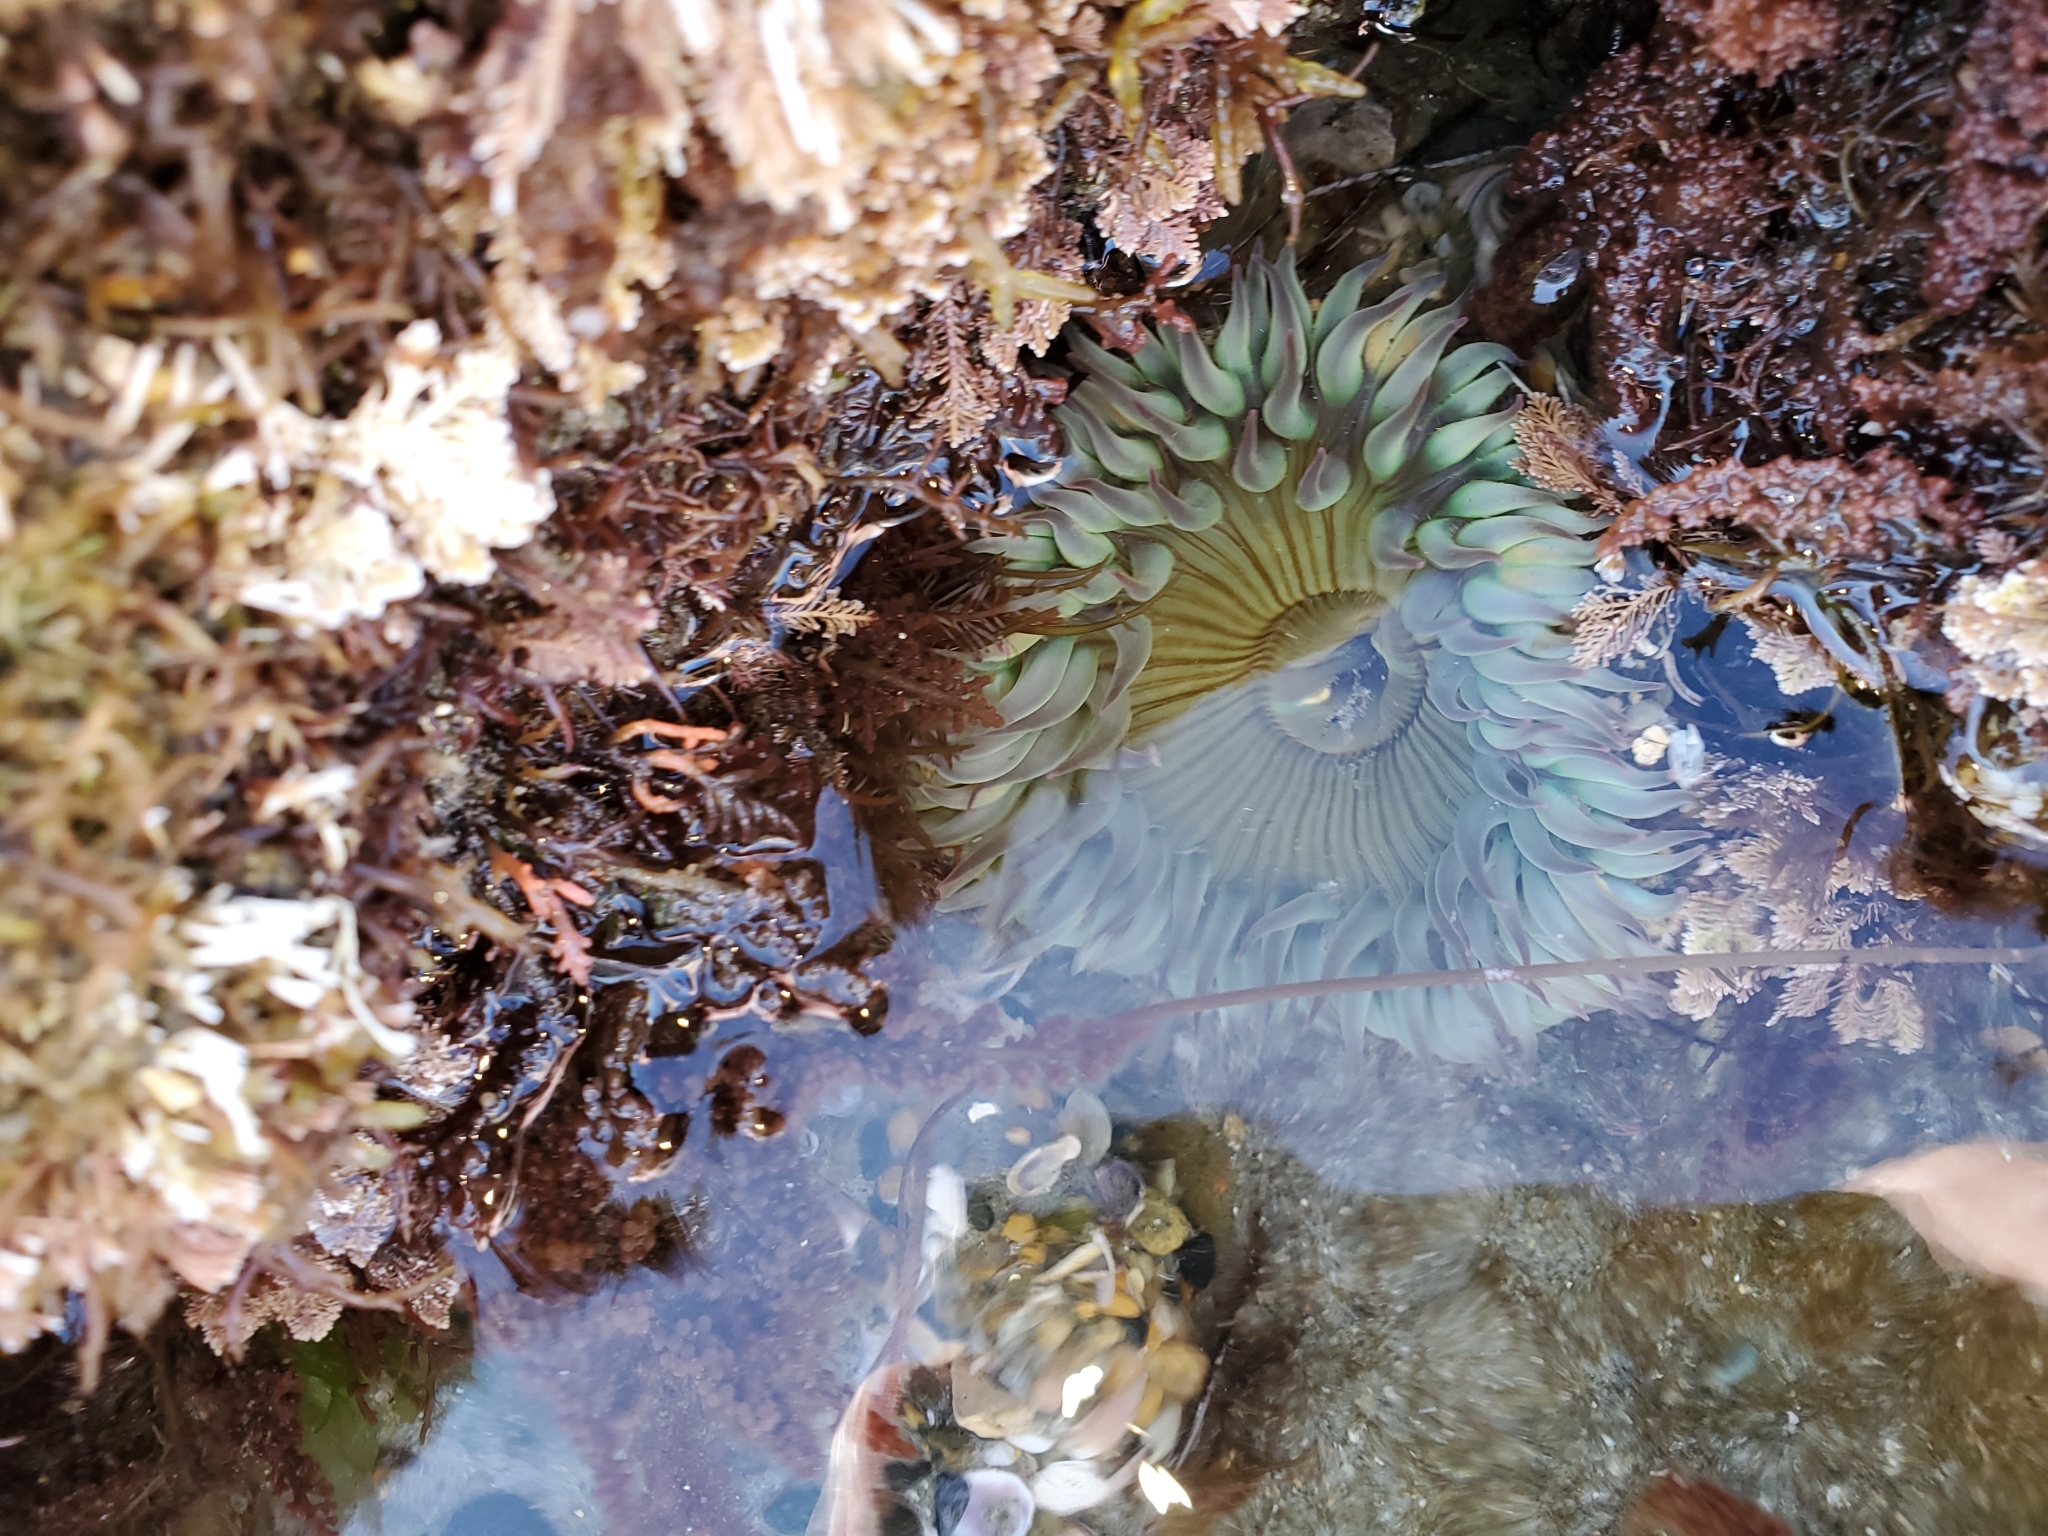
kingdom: Animalia
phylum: Cnidaria
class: Anthozoa
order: Actiniaria
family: Actiniidae
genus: Anthopleura
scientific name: Anthopleura sola
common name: Sun anemone
